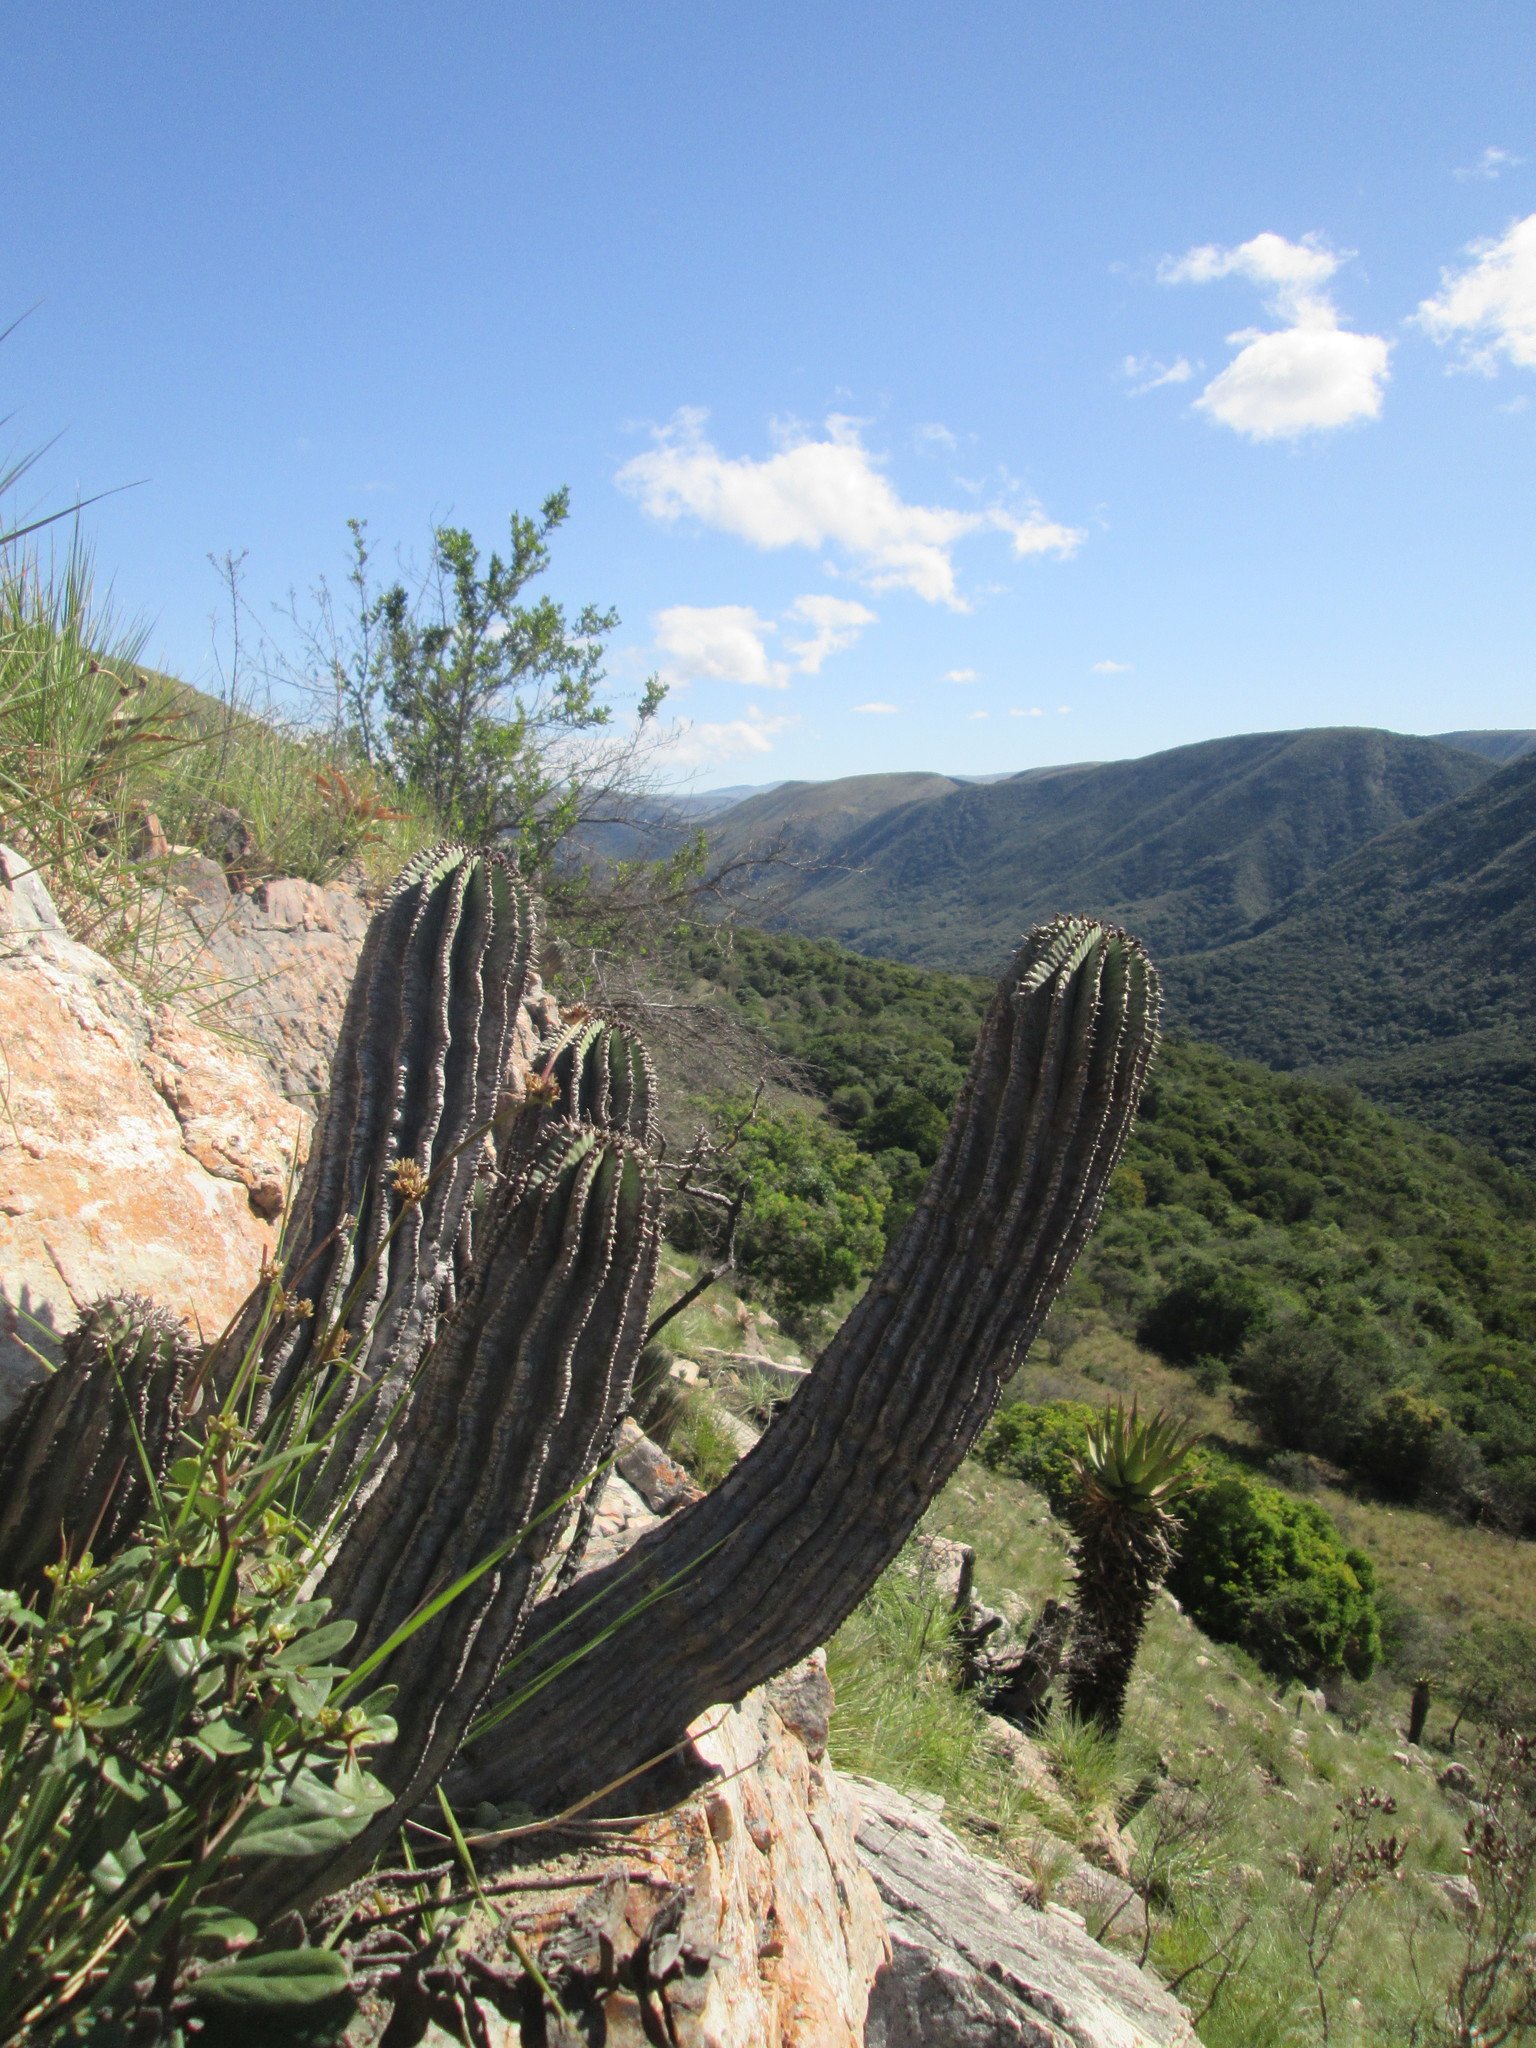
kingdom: Plantae
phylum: Tracheophyta
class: Magnoliopsida
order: Malpighiales
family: Euphorbiaceae
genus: Euphorbia
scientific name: Euphorbia polygona
